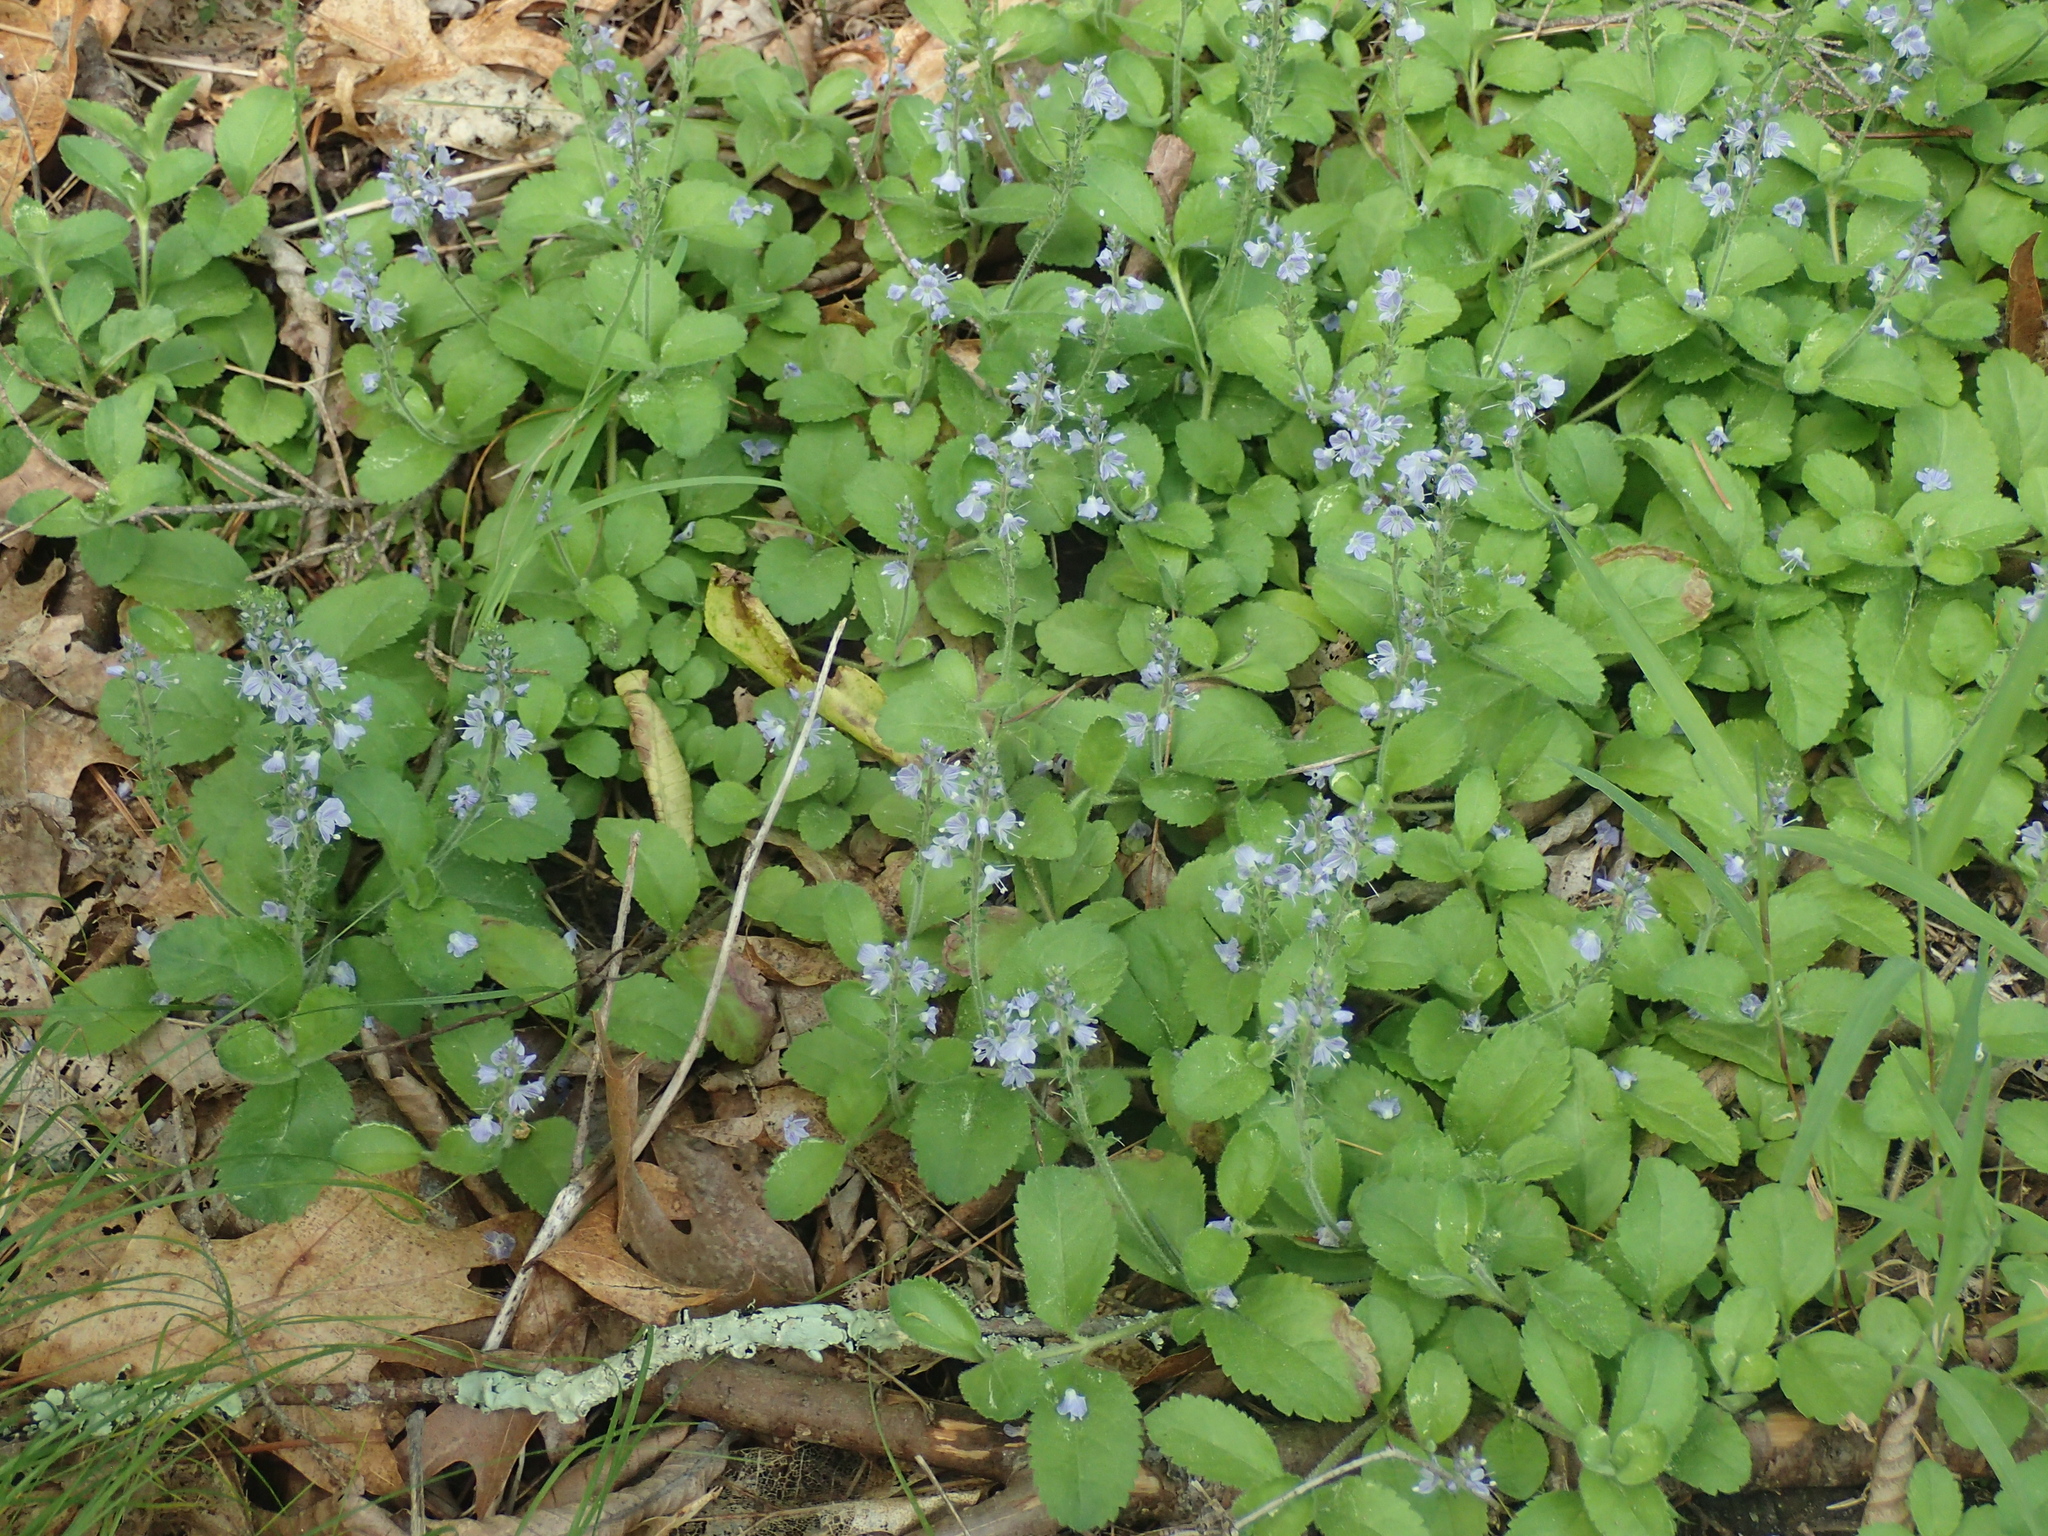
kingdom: Plantae
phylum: Tracheophyta
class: Magnoliopsida
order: Lamiales
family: Plantaginaceae
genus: Veronica
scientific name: Veronica officinalis
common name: Common speedwell
